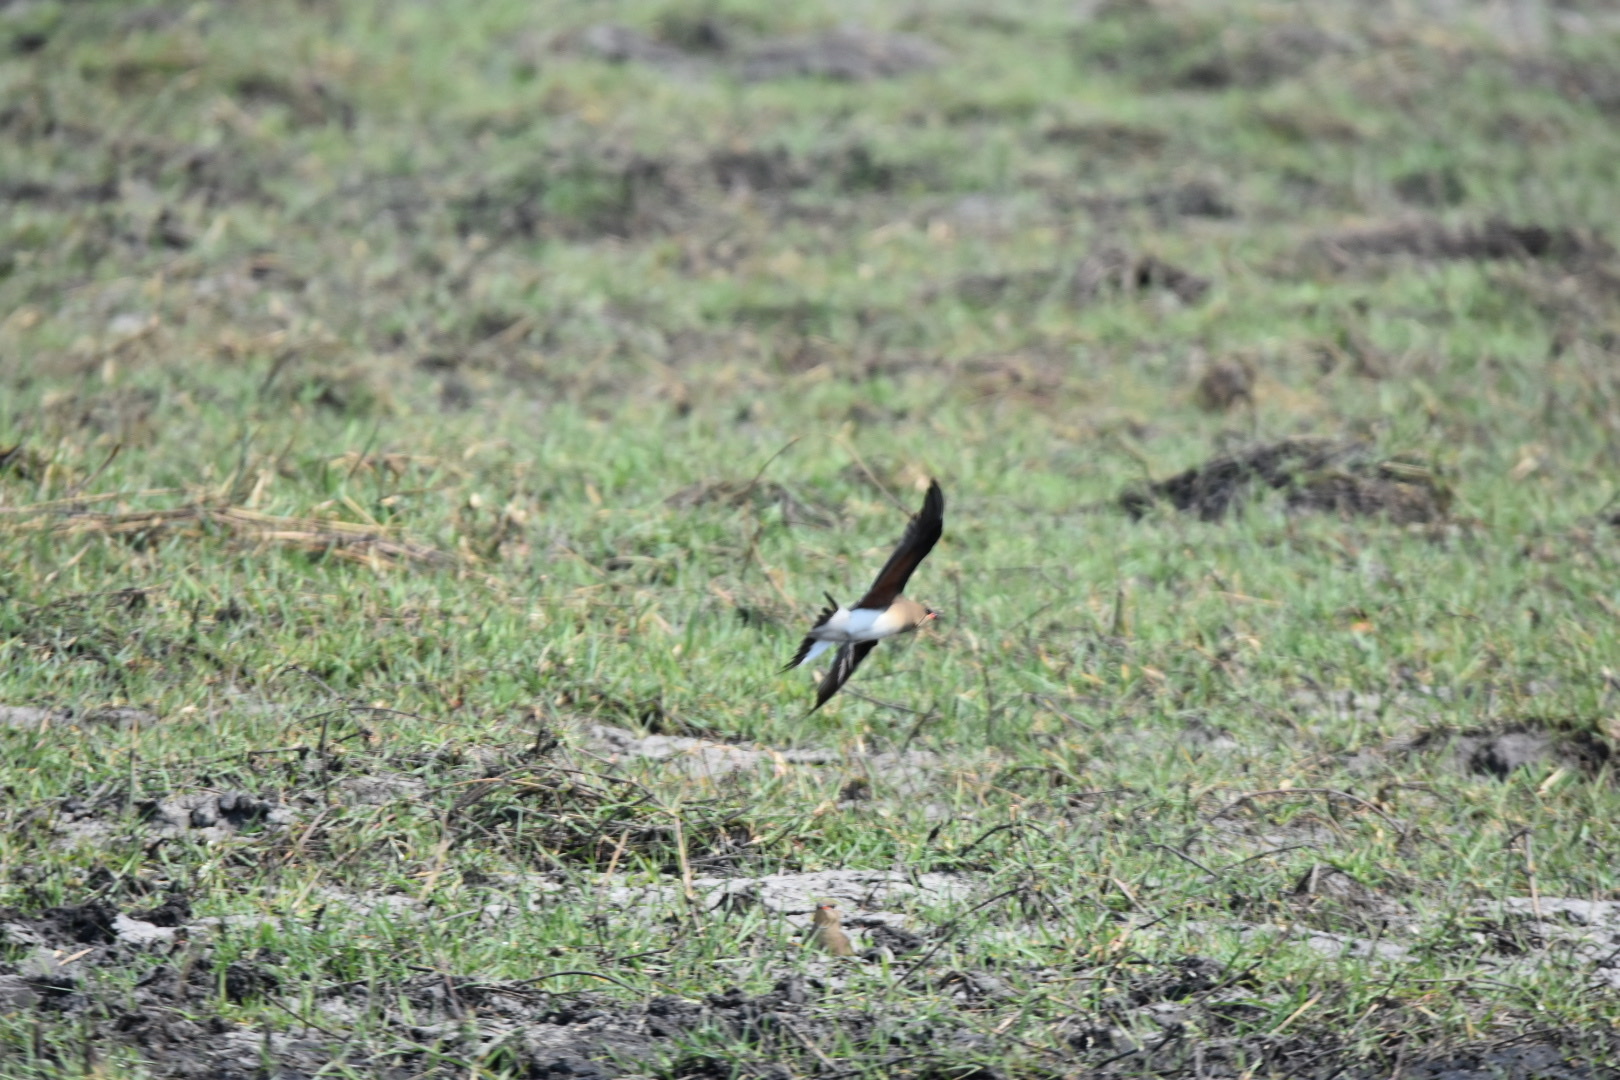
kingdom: Animalia
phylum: Chordata
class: Aves
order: Charadriiformes
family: Glareolidae
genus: Glareola
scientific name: Glareola pratincola
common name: Collared pratincole
